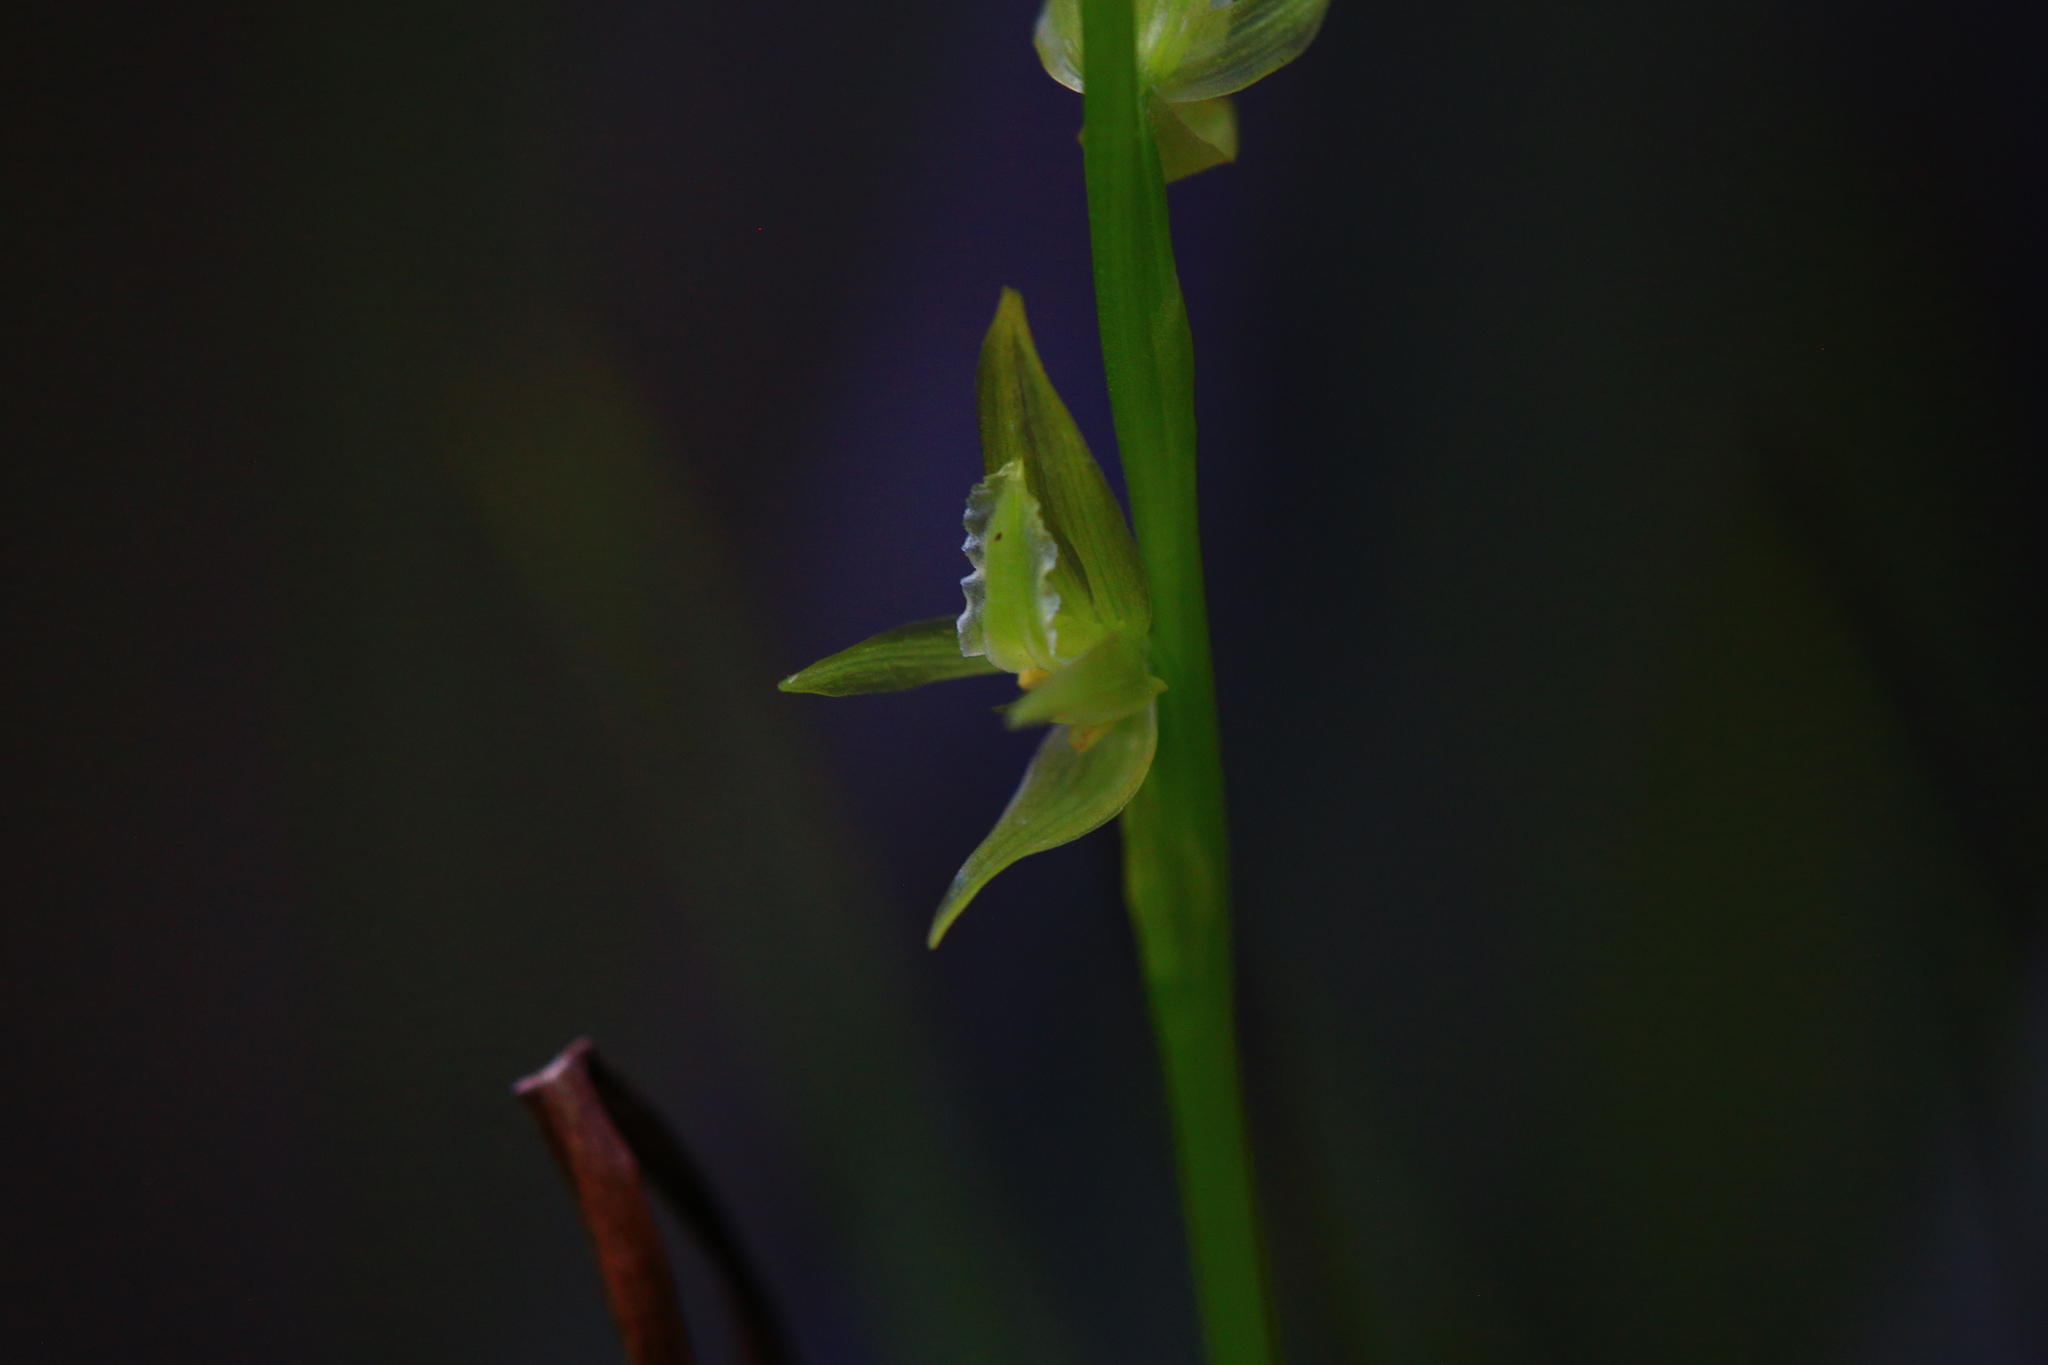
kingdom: Plantae
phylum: Tracheophyta
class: Liliopsida
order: Asparagales
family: Orchidaceae
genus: Prasophyllum
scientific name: Prasophyllum drummondii
